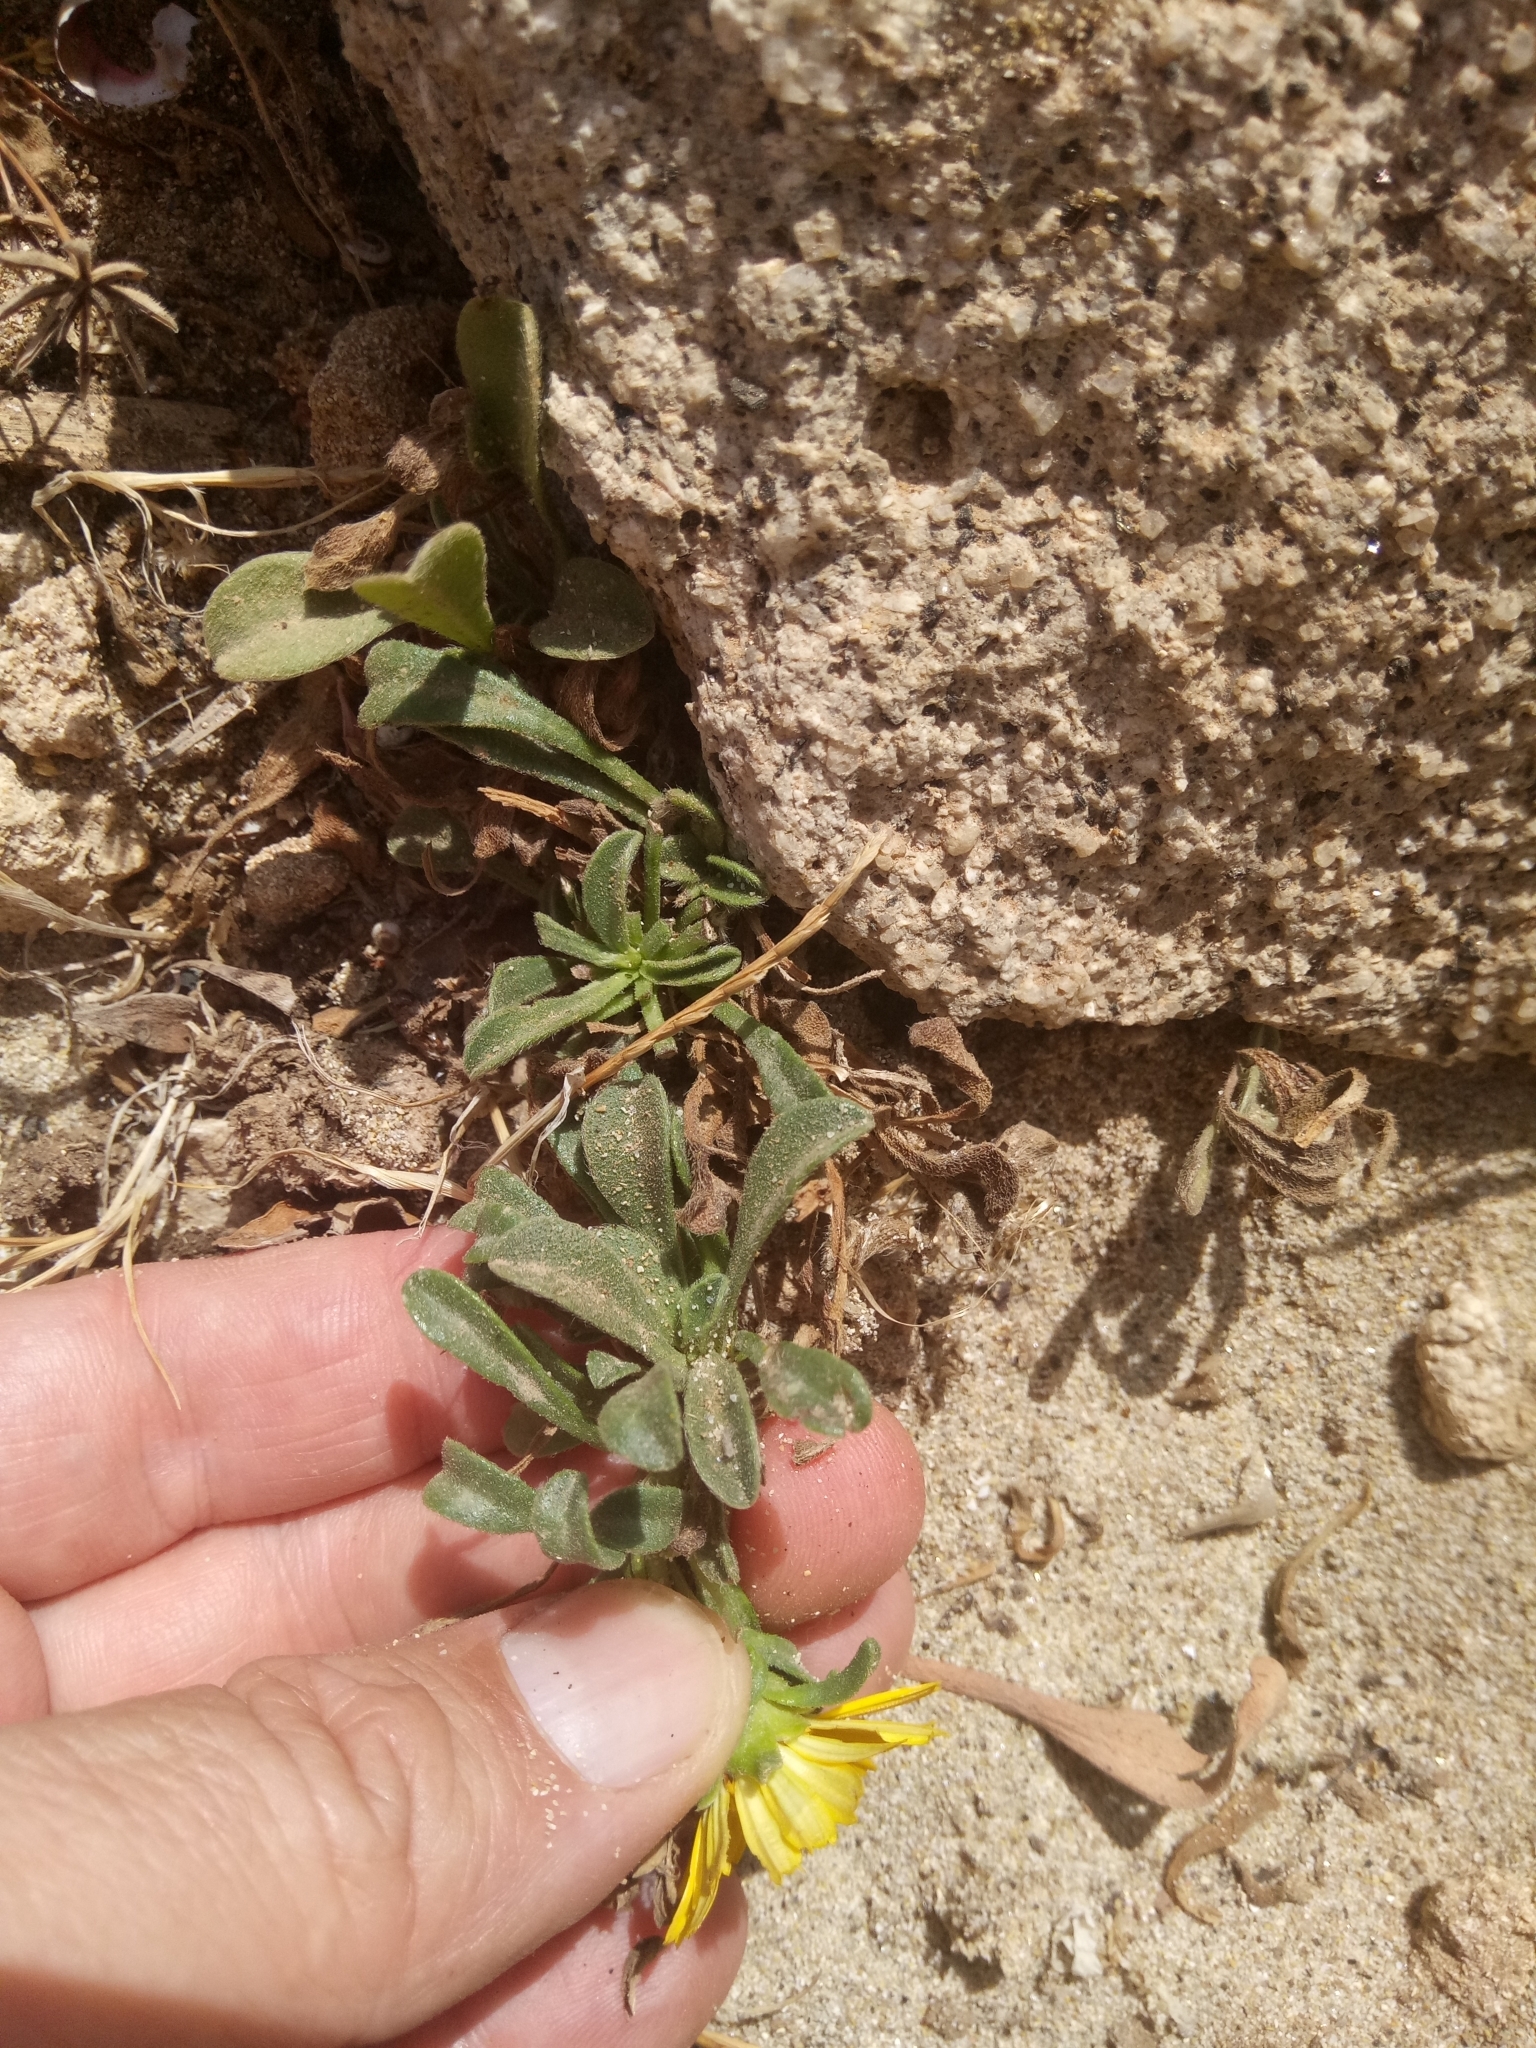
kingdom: Plantae
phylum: Tracheophyta
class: Magnoliopsida
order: Asterales
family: Asteraceae
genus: Pallenis
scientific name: Pallenis maritima
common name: Golden coin daisy
